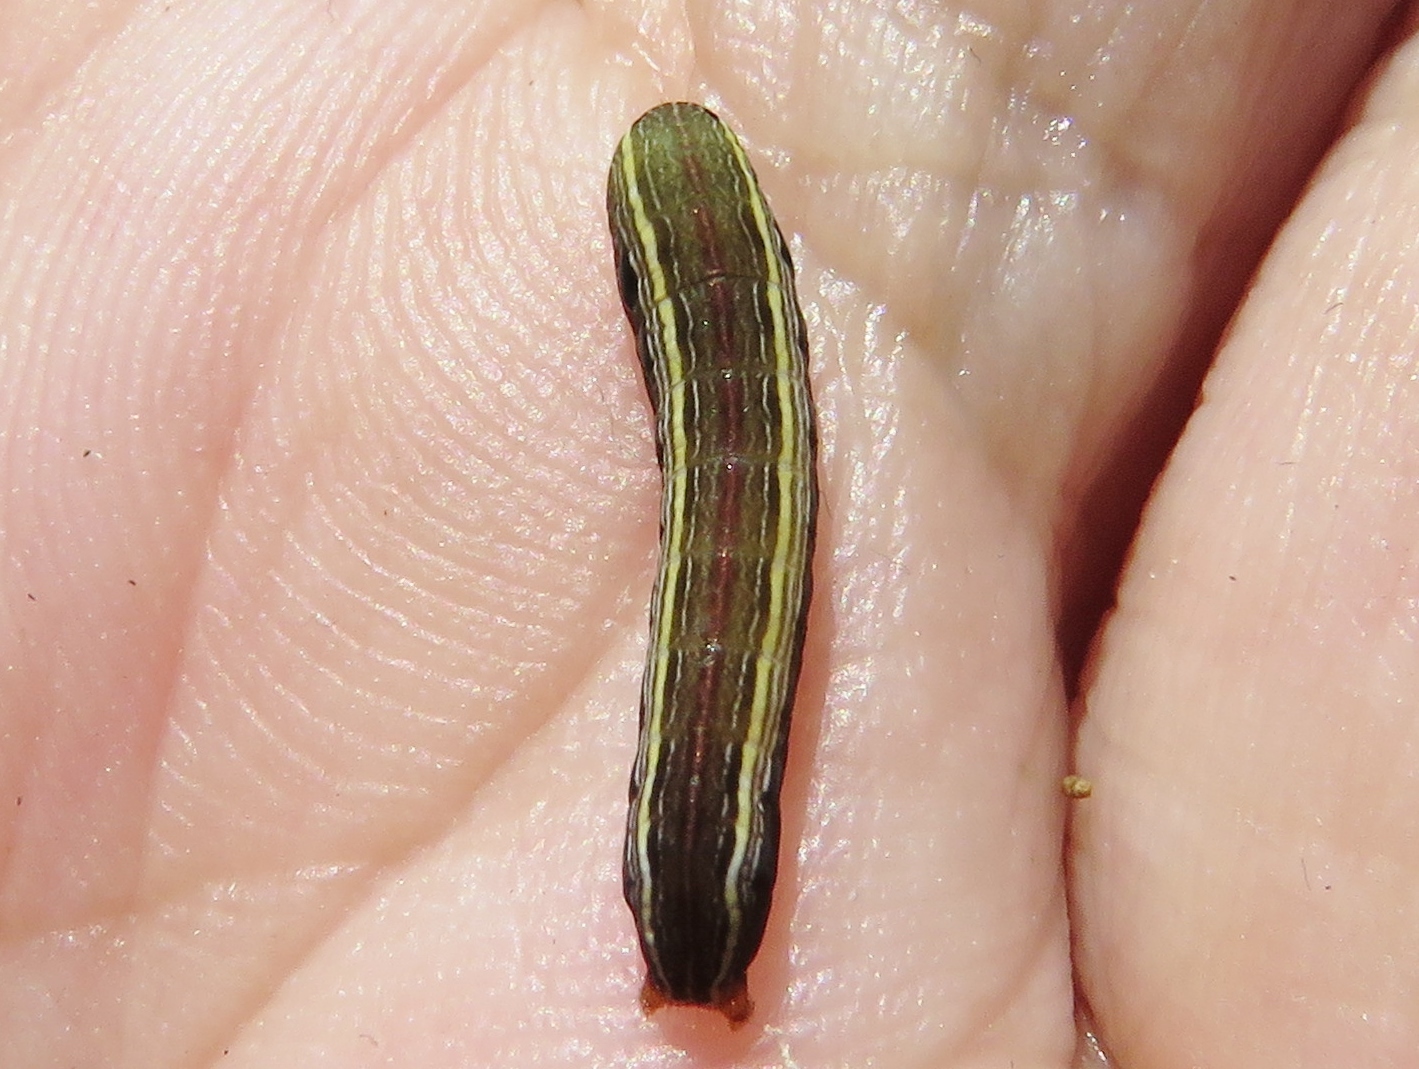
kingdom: Animalia
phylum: Arthropoda
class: Insecta
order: Lepidoptera
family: Noctuidae
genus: Spodoptera
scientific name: Spodoptera ornithogalli
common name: Yellow-striped armyworm
